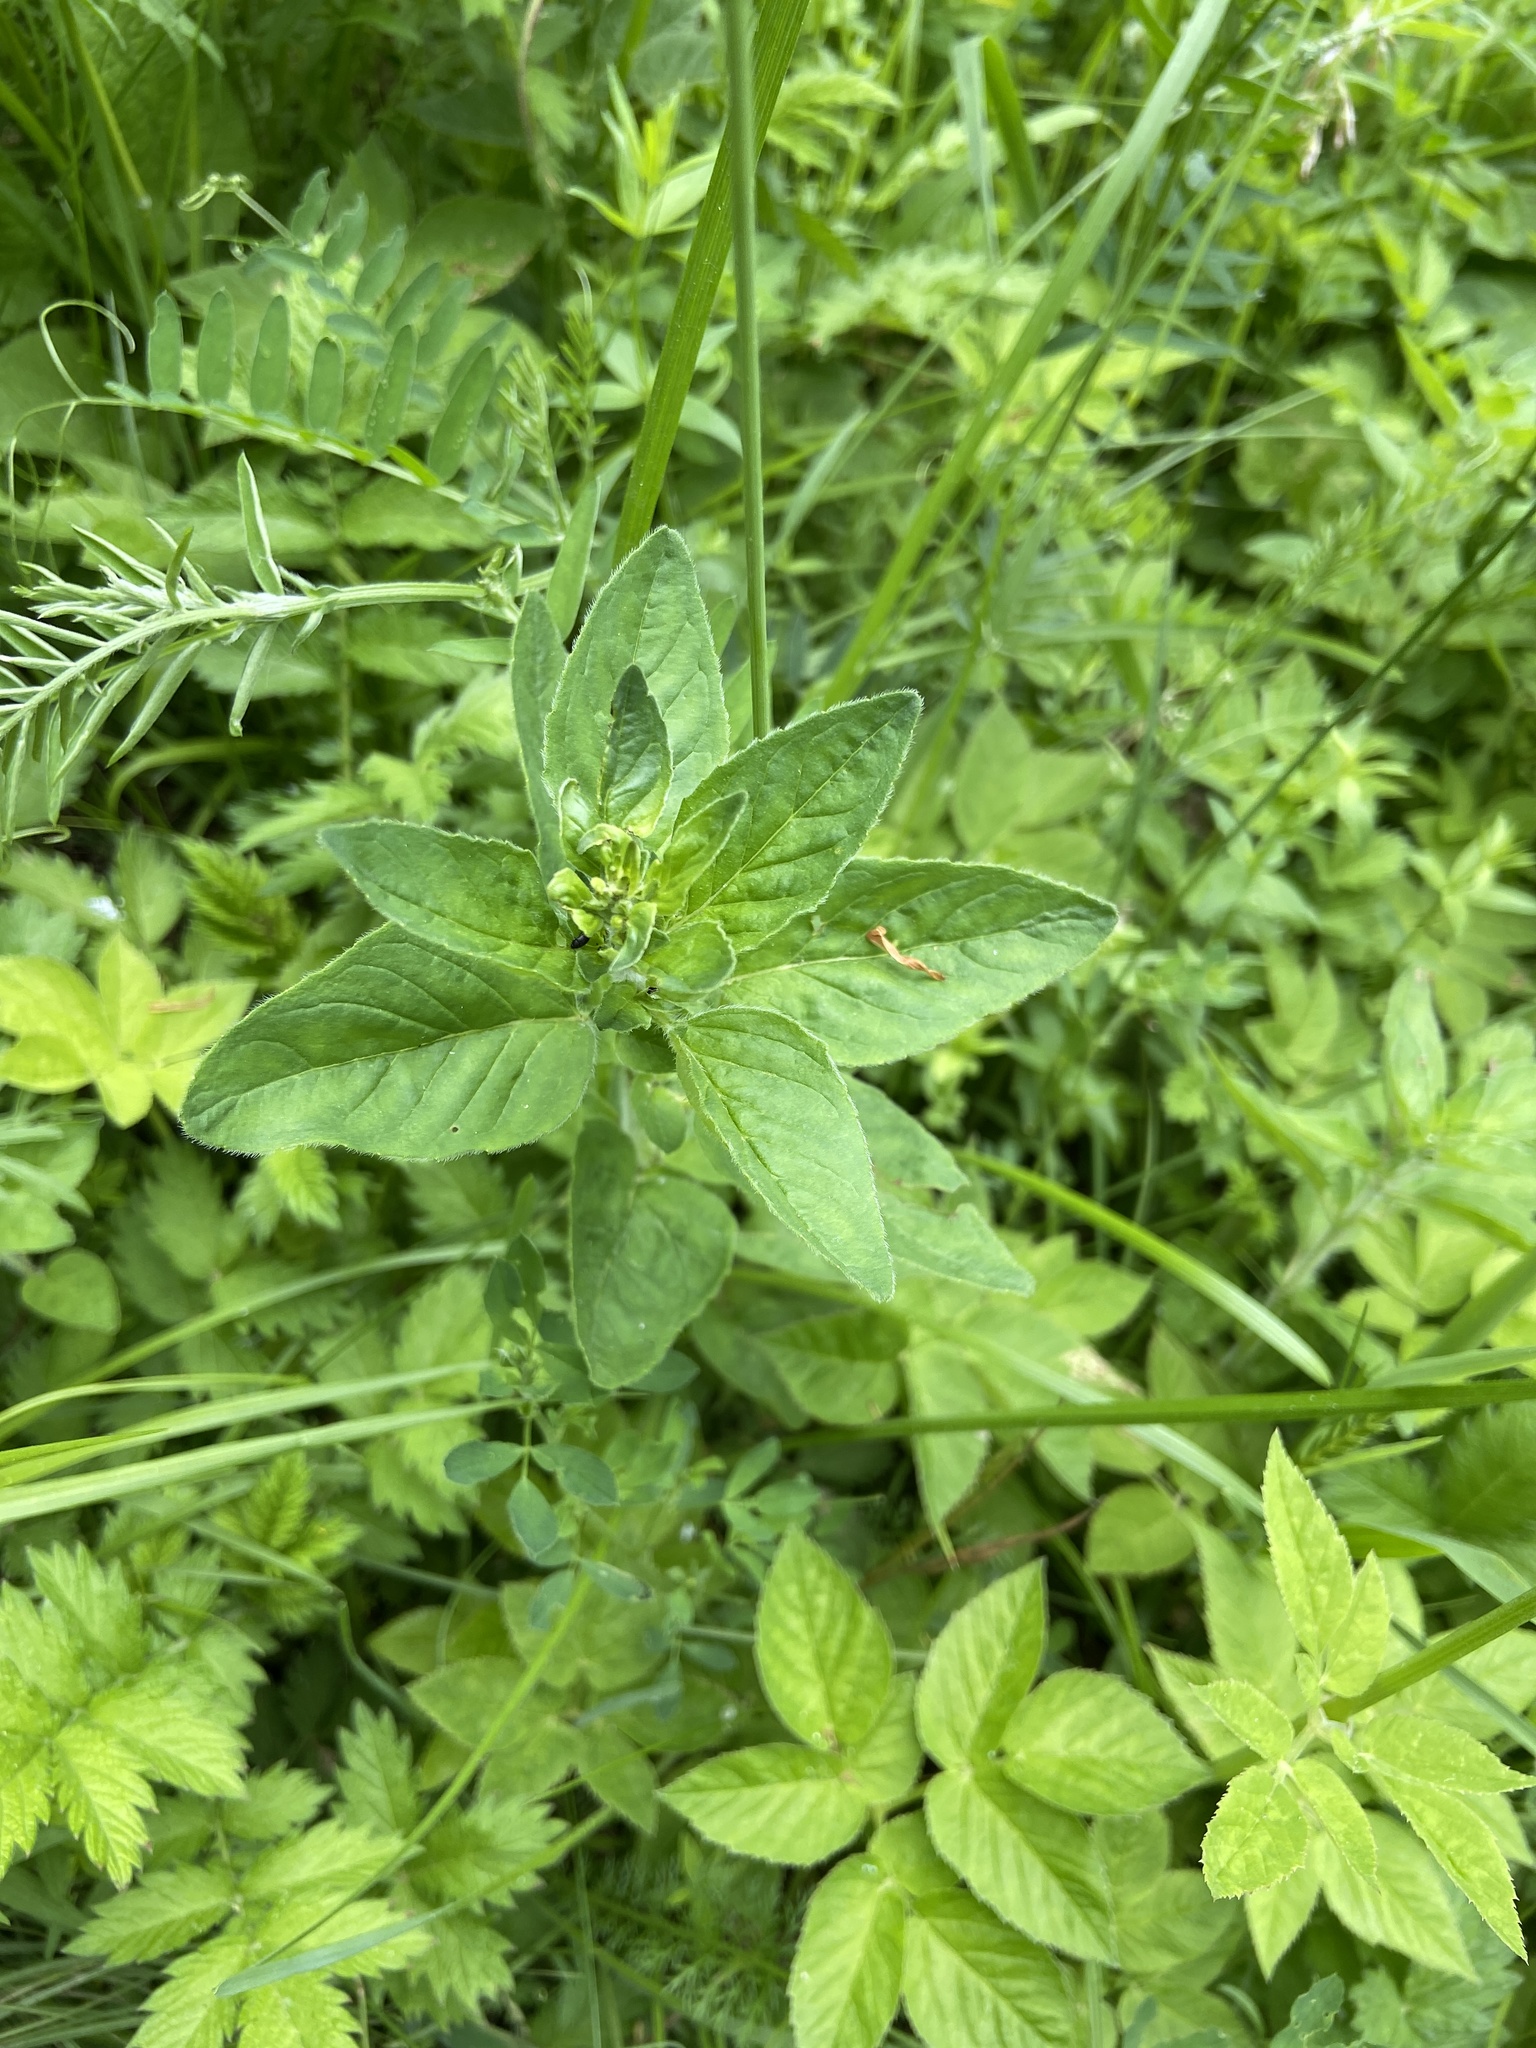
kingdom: Plantae
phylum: Tracheophyta
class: Magnoliopsida
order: Lamiales
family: Lamiaceae
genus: Origanum
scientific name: Origanum vulgare
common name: Wild marjoram
